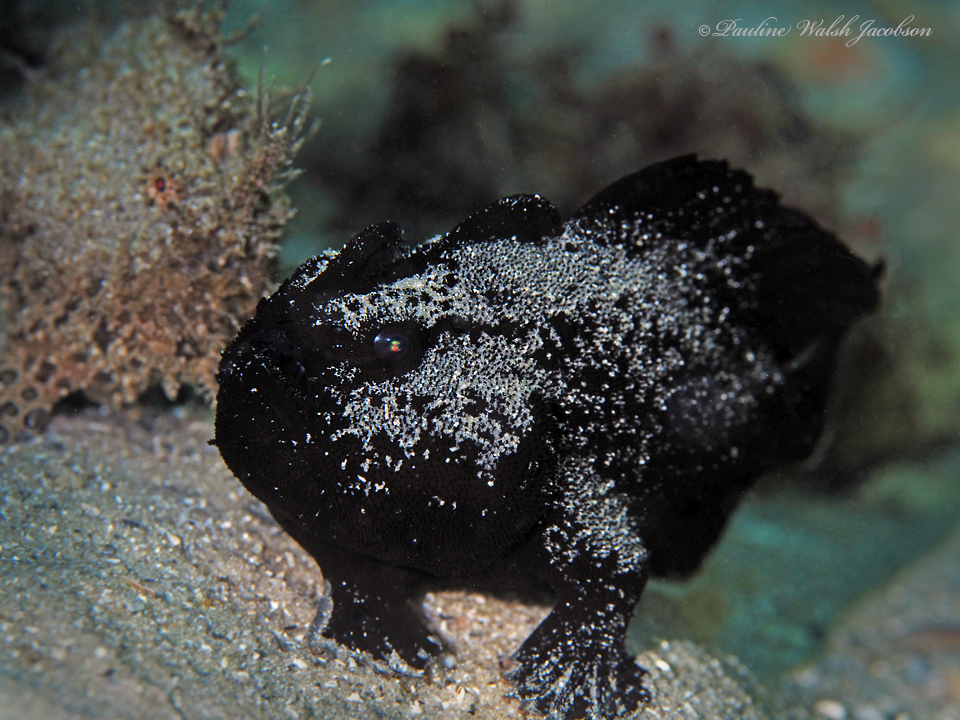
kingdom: Animalia
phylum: Chordata
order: Lophiiformes
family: Antennariidae
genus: Antennarius
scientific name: Antennarius striatus
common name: Striated frogfish
